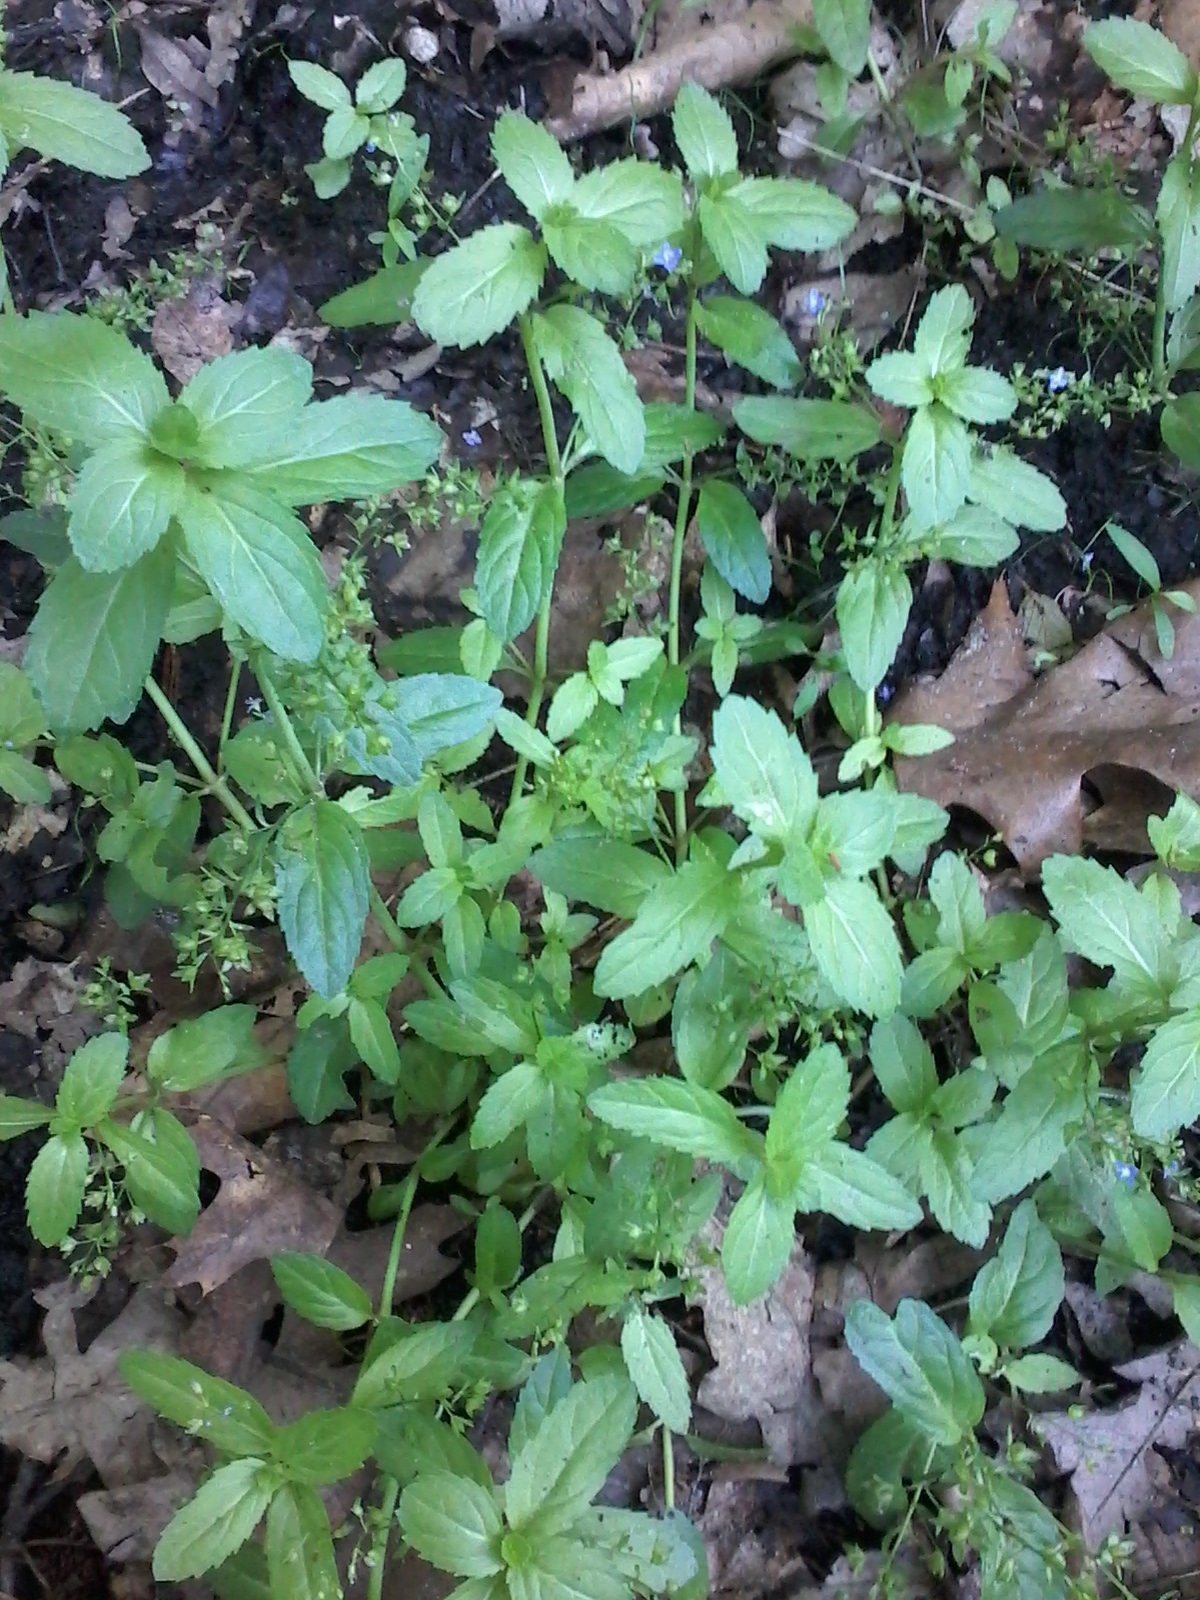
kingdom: Plantae
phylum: Tracheophyta
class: Magnoliopsida
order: Lamiales
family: Plantaginaceae
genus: Veronica
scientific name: Veronica beccabunga
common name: Brooklime
